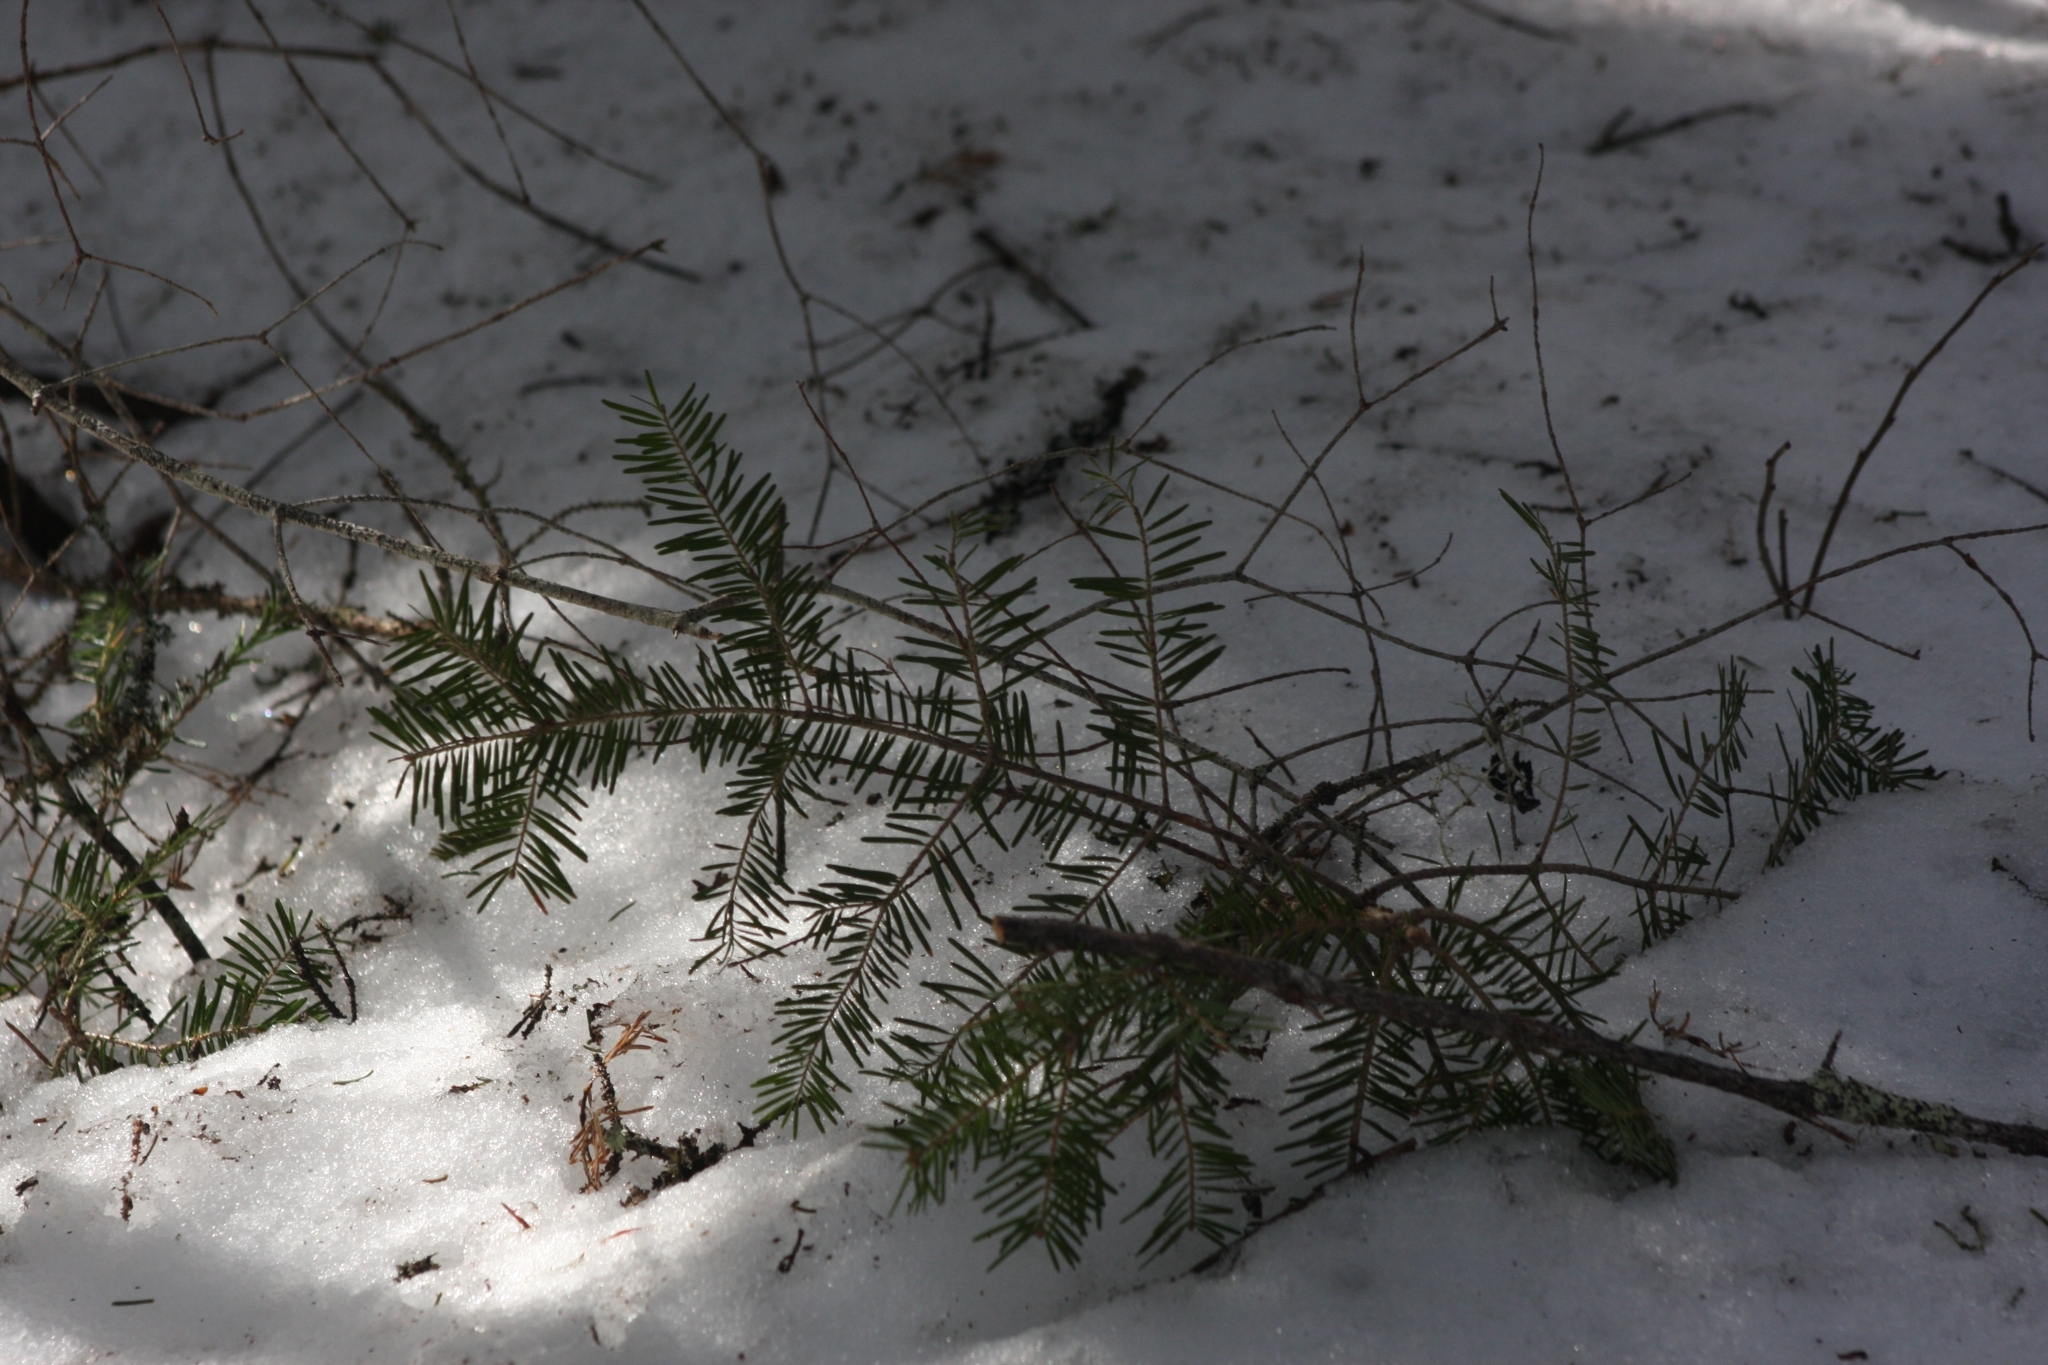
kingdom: Plantae
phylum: Tracheophyta
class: Pinopsida
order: Pinales
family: Pinaceae
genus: Abies
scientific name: Abies balsamea
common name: Balsam fir
